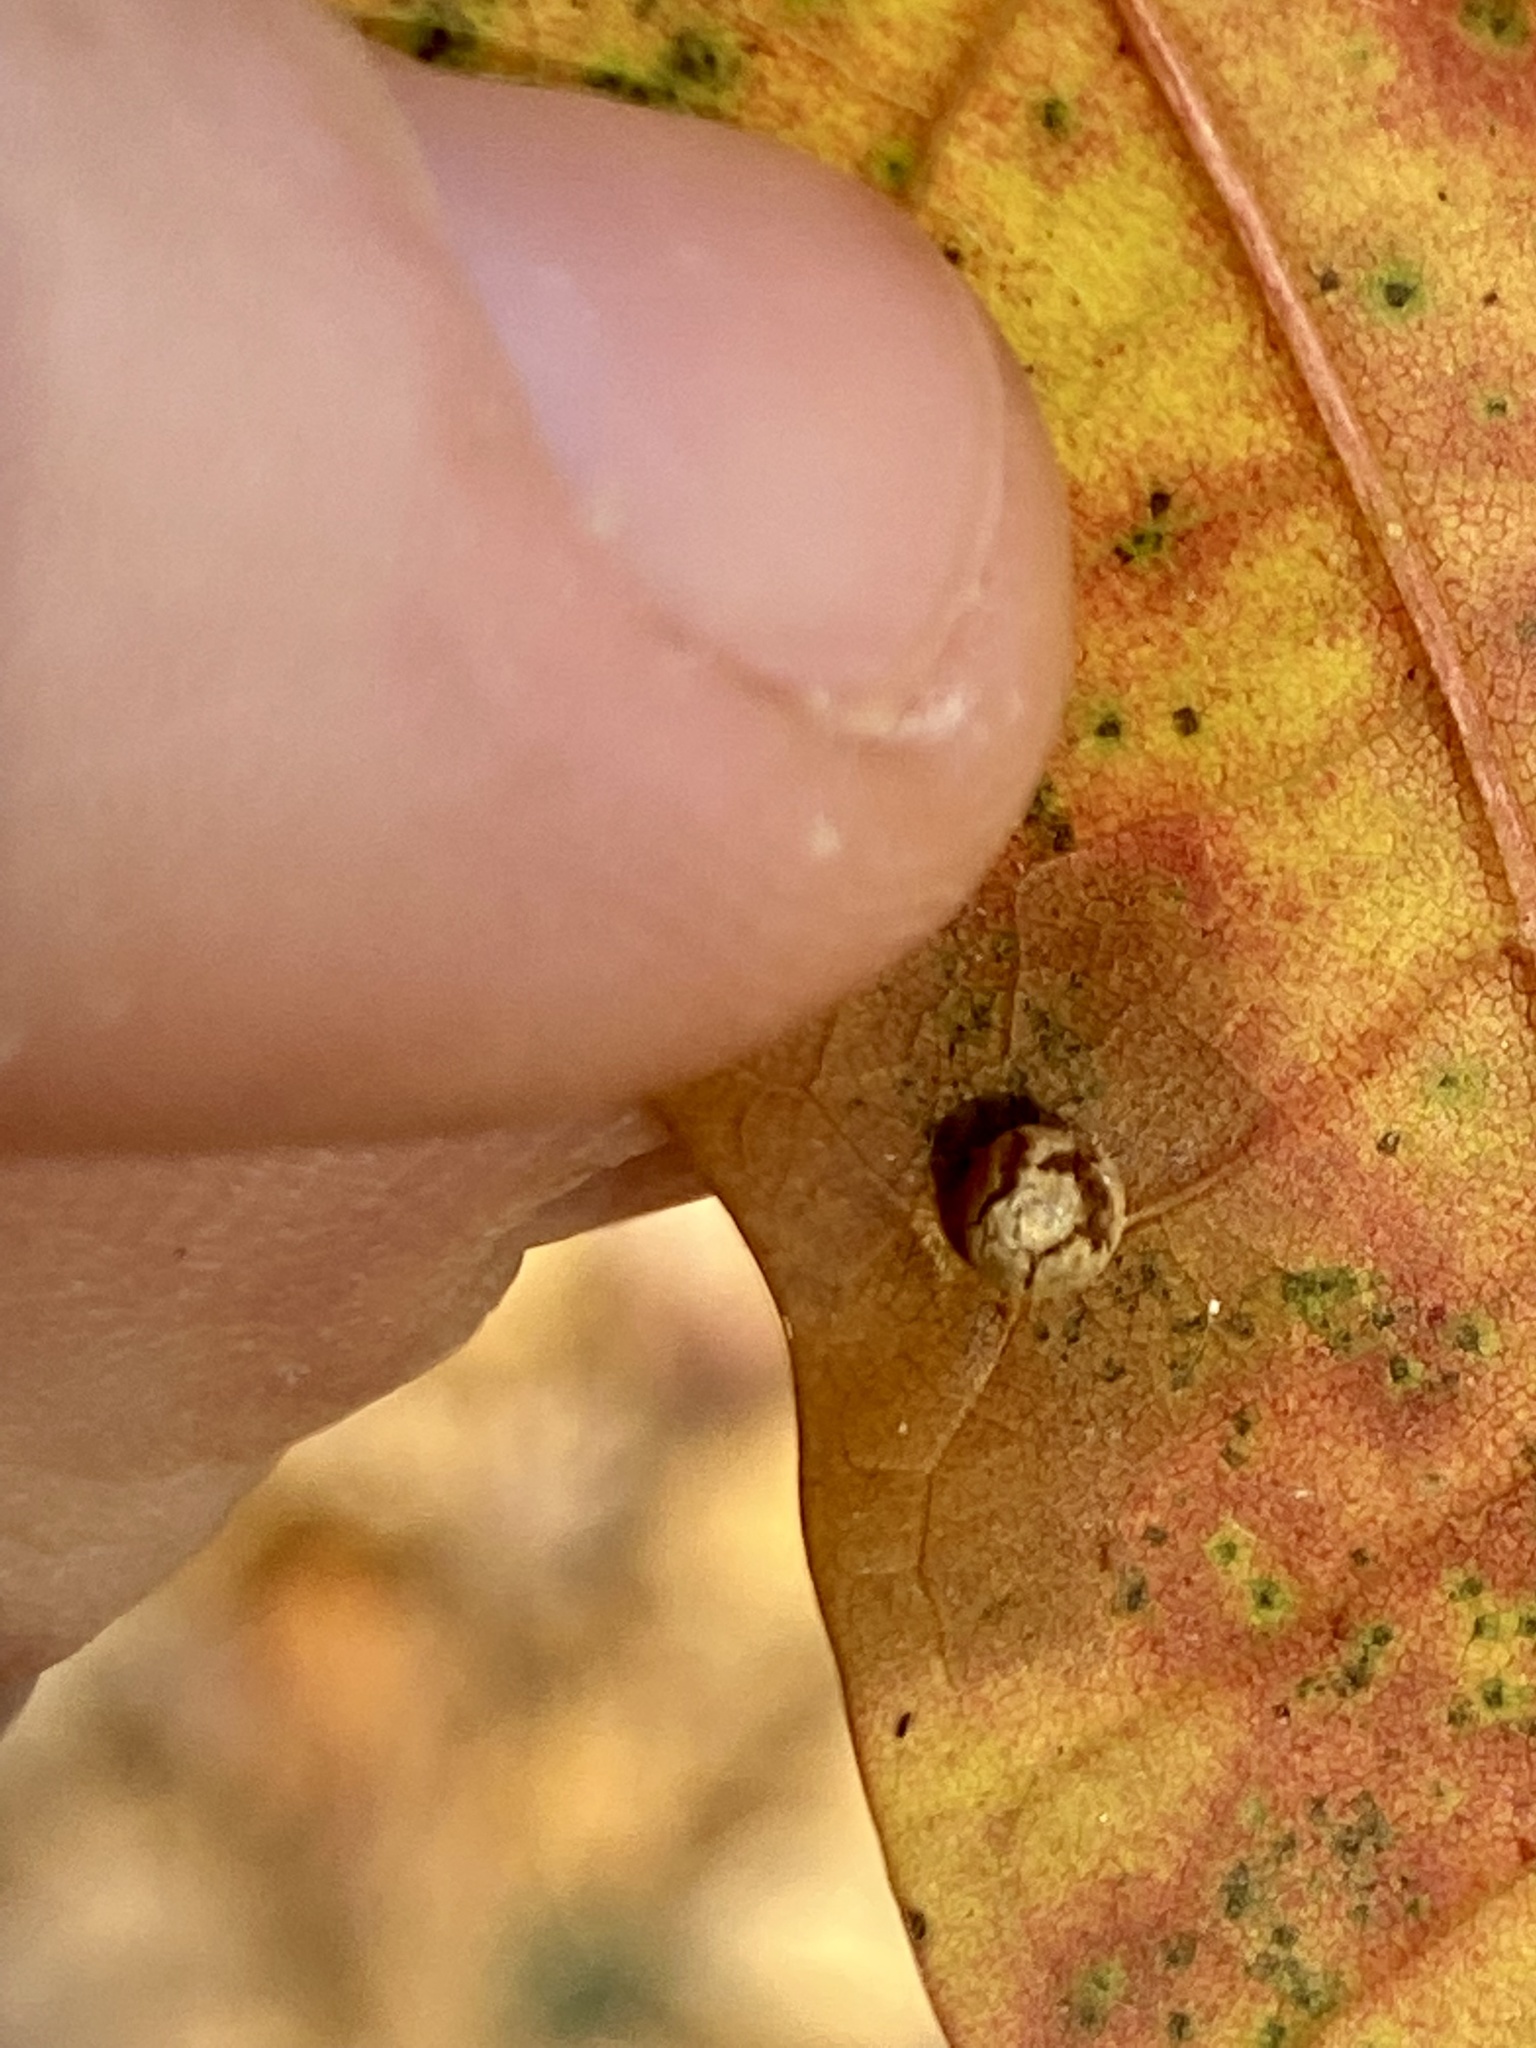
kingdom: Animalia
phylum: Arthropoda
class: Insecta
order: Diptera
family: Cecidomyiidae
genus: Polystepha
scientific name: Polystepha globosa
